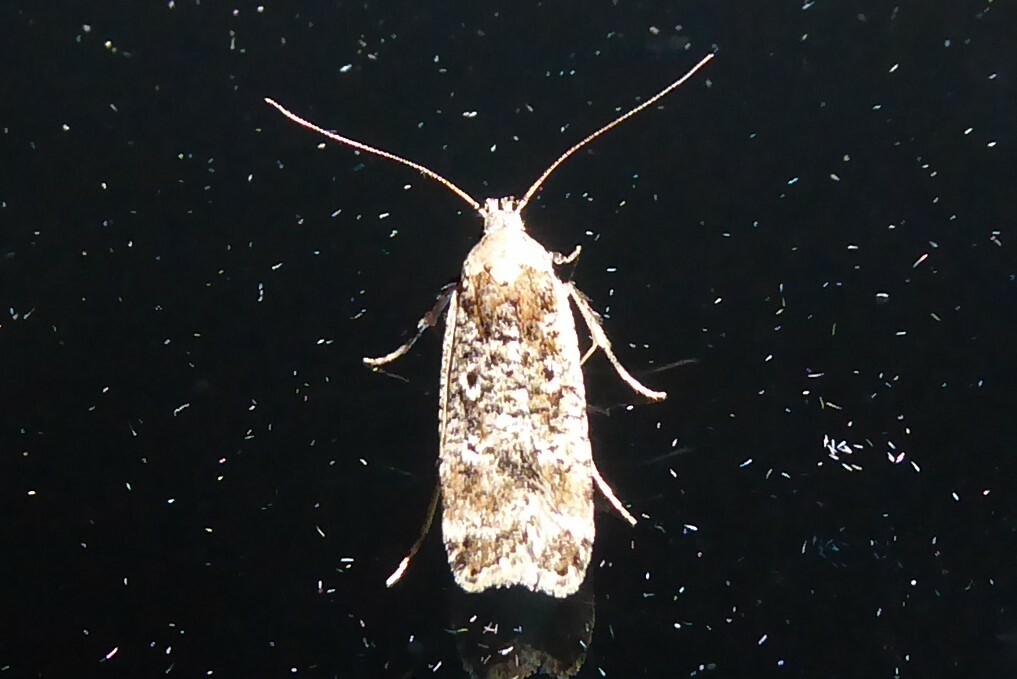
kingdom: Animalia
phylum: Arthropoda
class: Insecta
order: Lepidoptera
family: Gelechiidae
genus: Anisoplaca
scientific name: Anisoplaca achyrota
